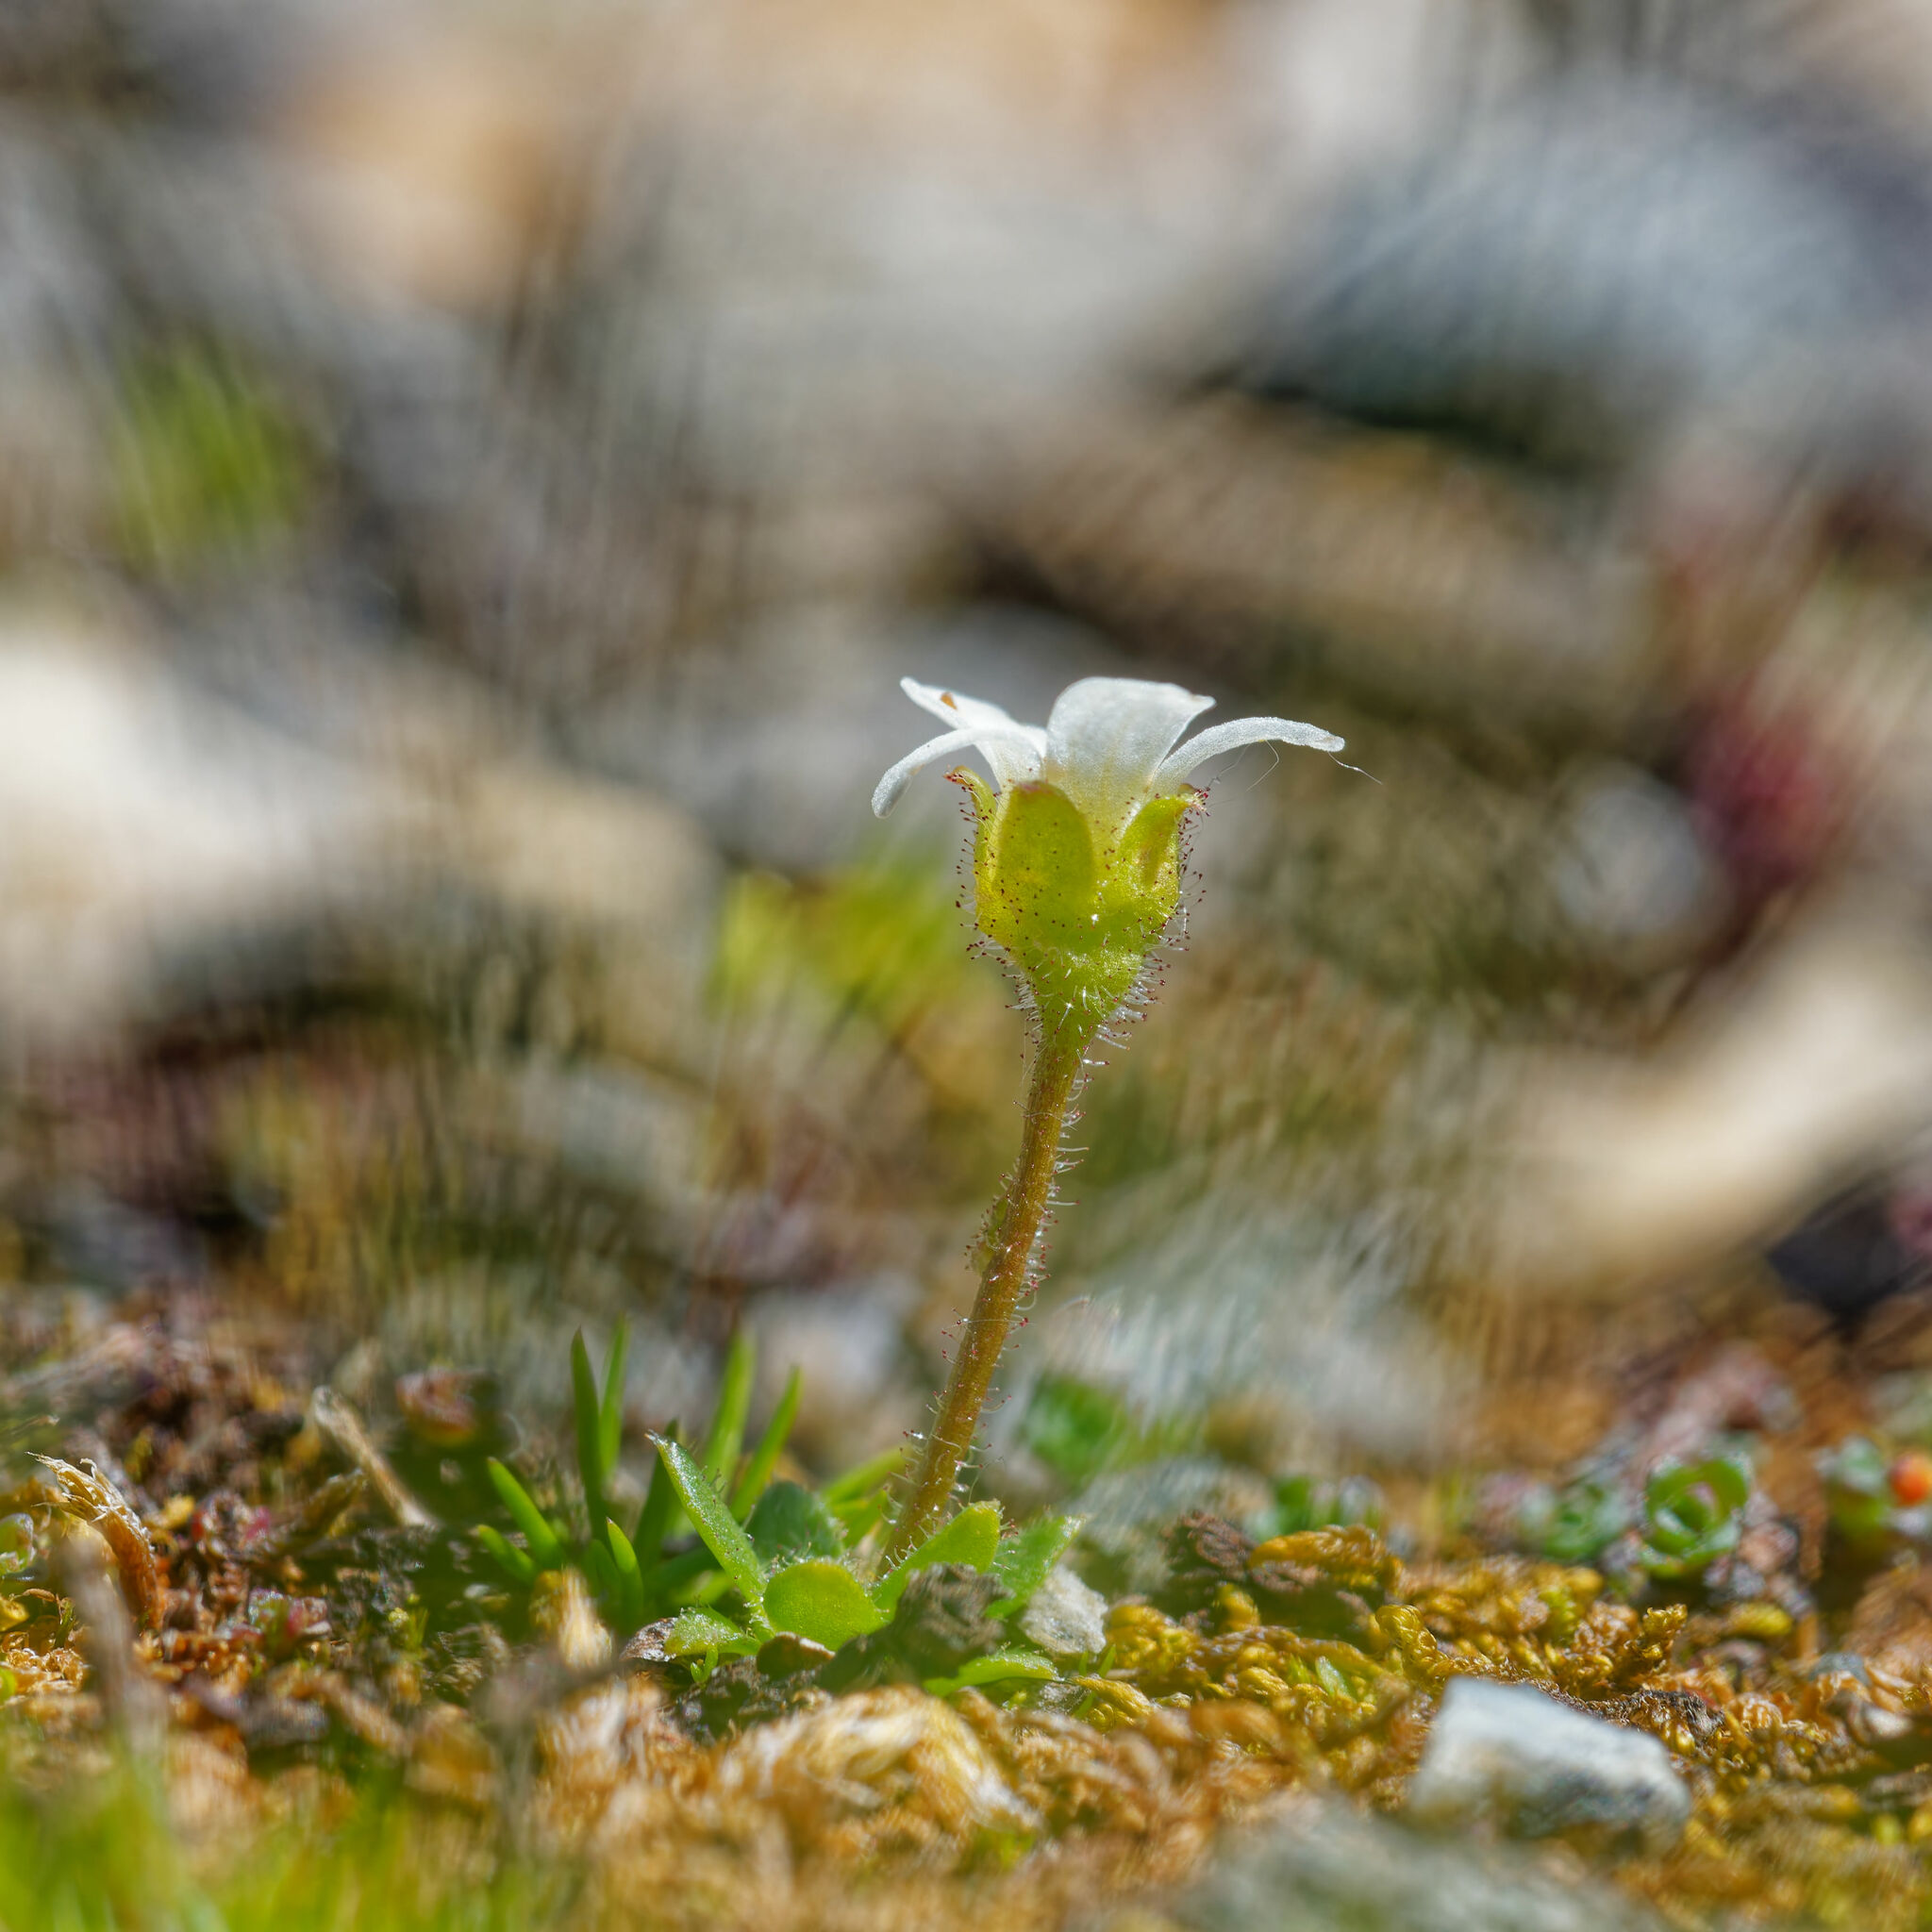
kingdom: Plantae
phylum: Tracheophyta
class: Magnoliopsida
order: Saxifragales
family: Saxifragaceae
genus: Saxifraga
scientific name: Saxifraga androsacea
